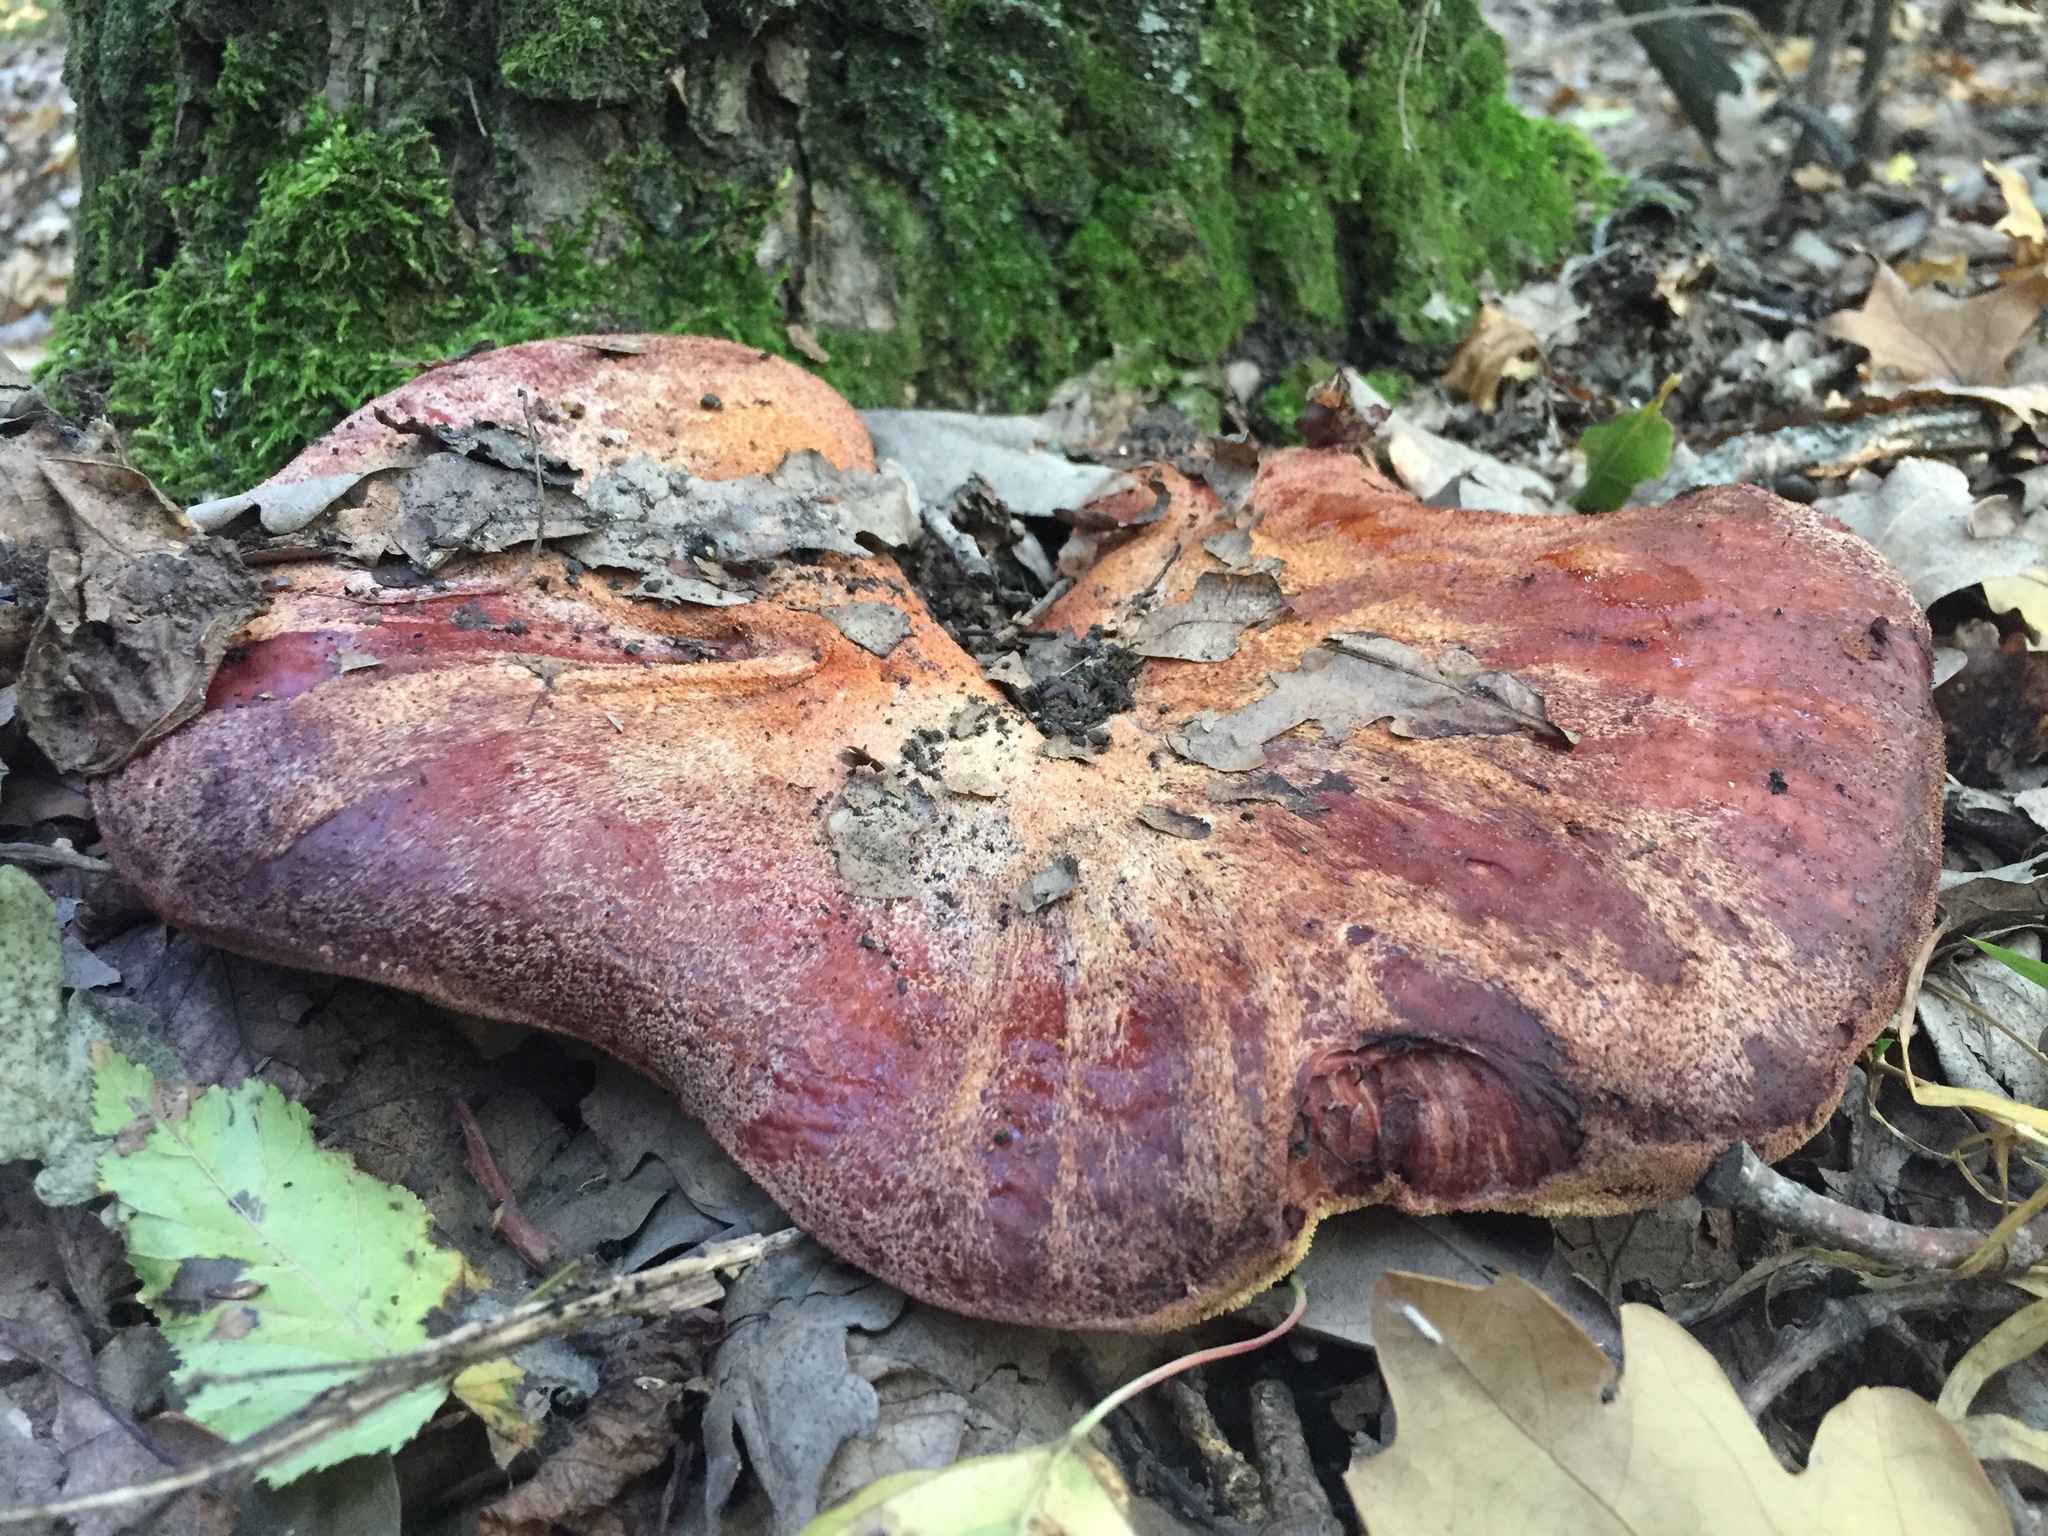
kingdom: Fungi
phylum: Basidiomycota
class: Agaricomycetes
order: Agaricales
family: Fistulinaceae
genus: Fistulina
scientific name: Fistulina hepatica
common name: Beef-steak fungus
